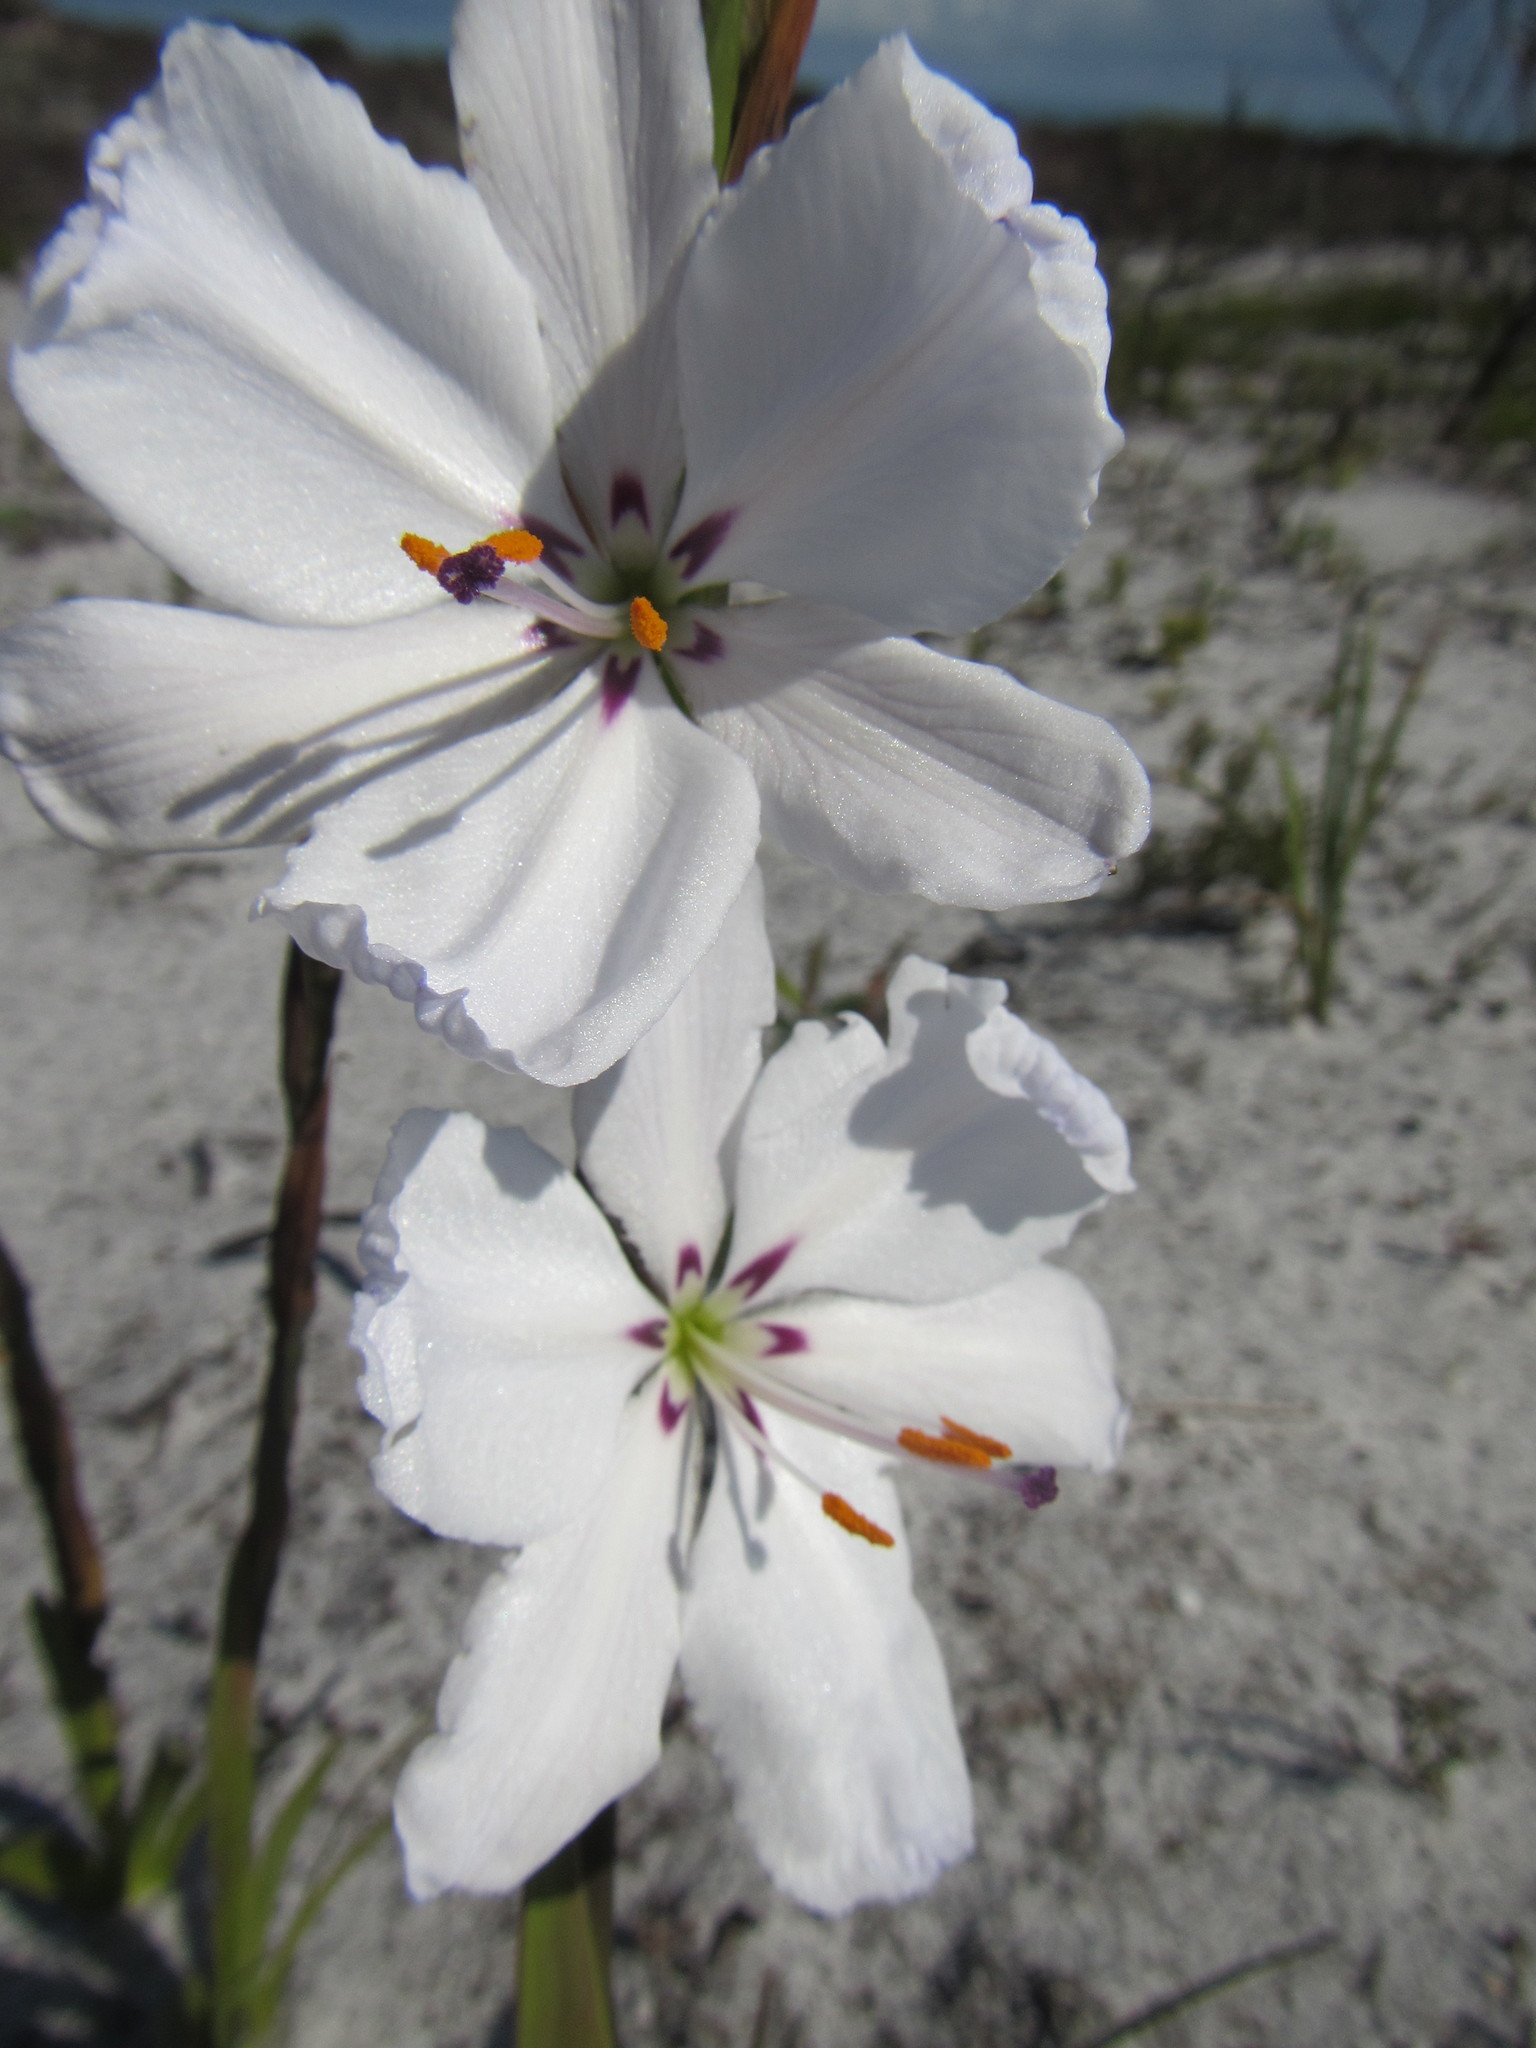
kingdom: Plantae
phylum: Tracheophyta
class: Liliopsida
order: Asparagales
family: Iridaceae
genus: Aristea
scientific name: Aristea spiralis
